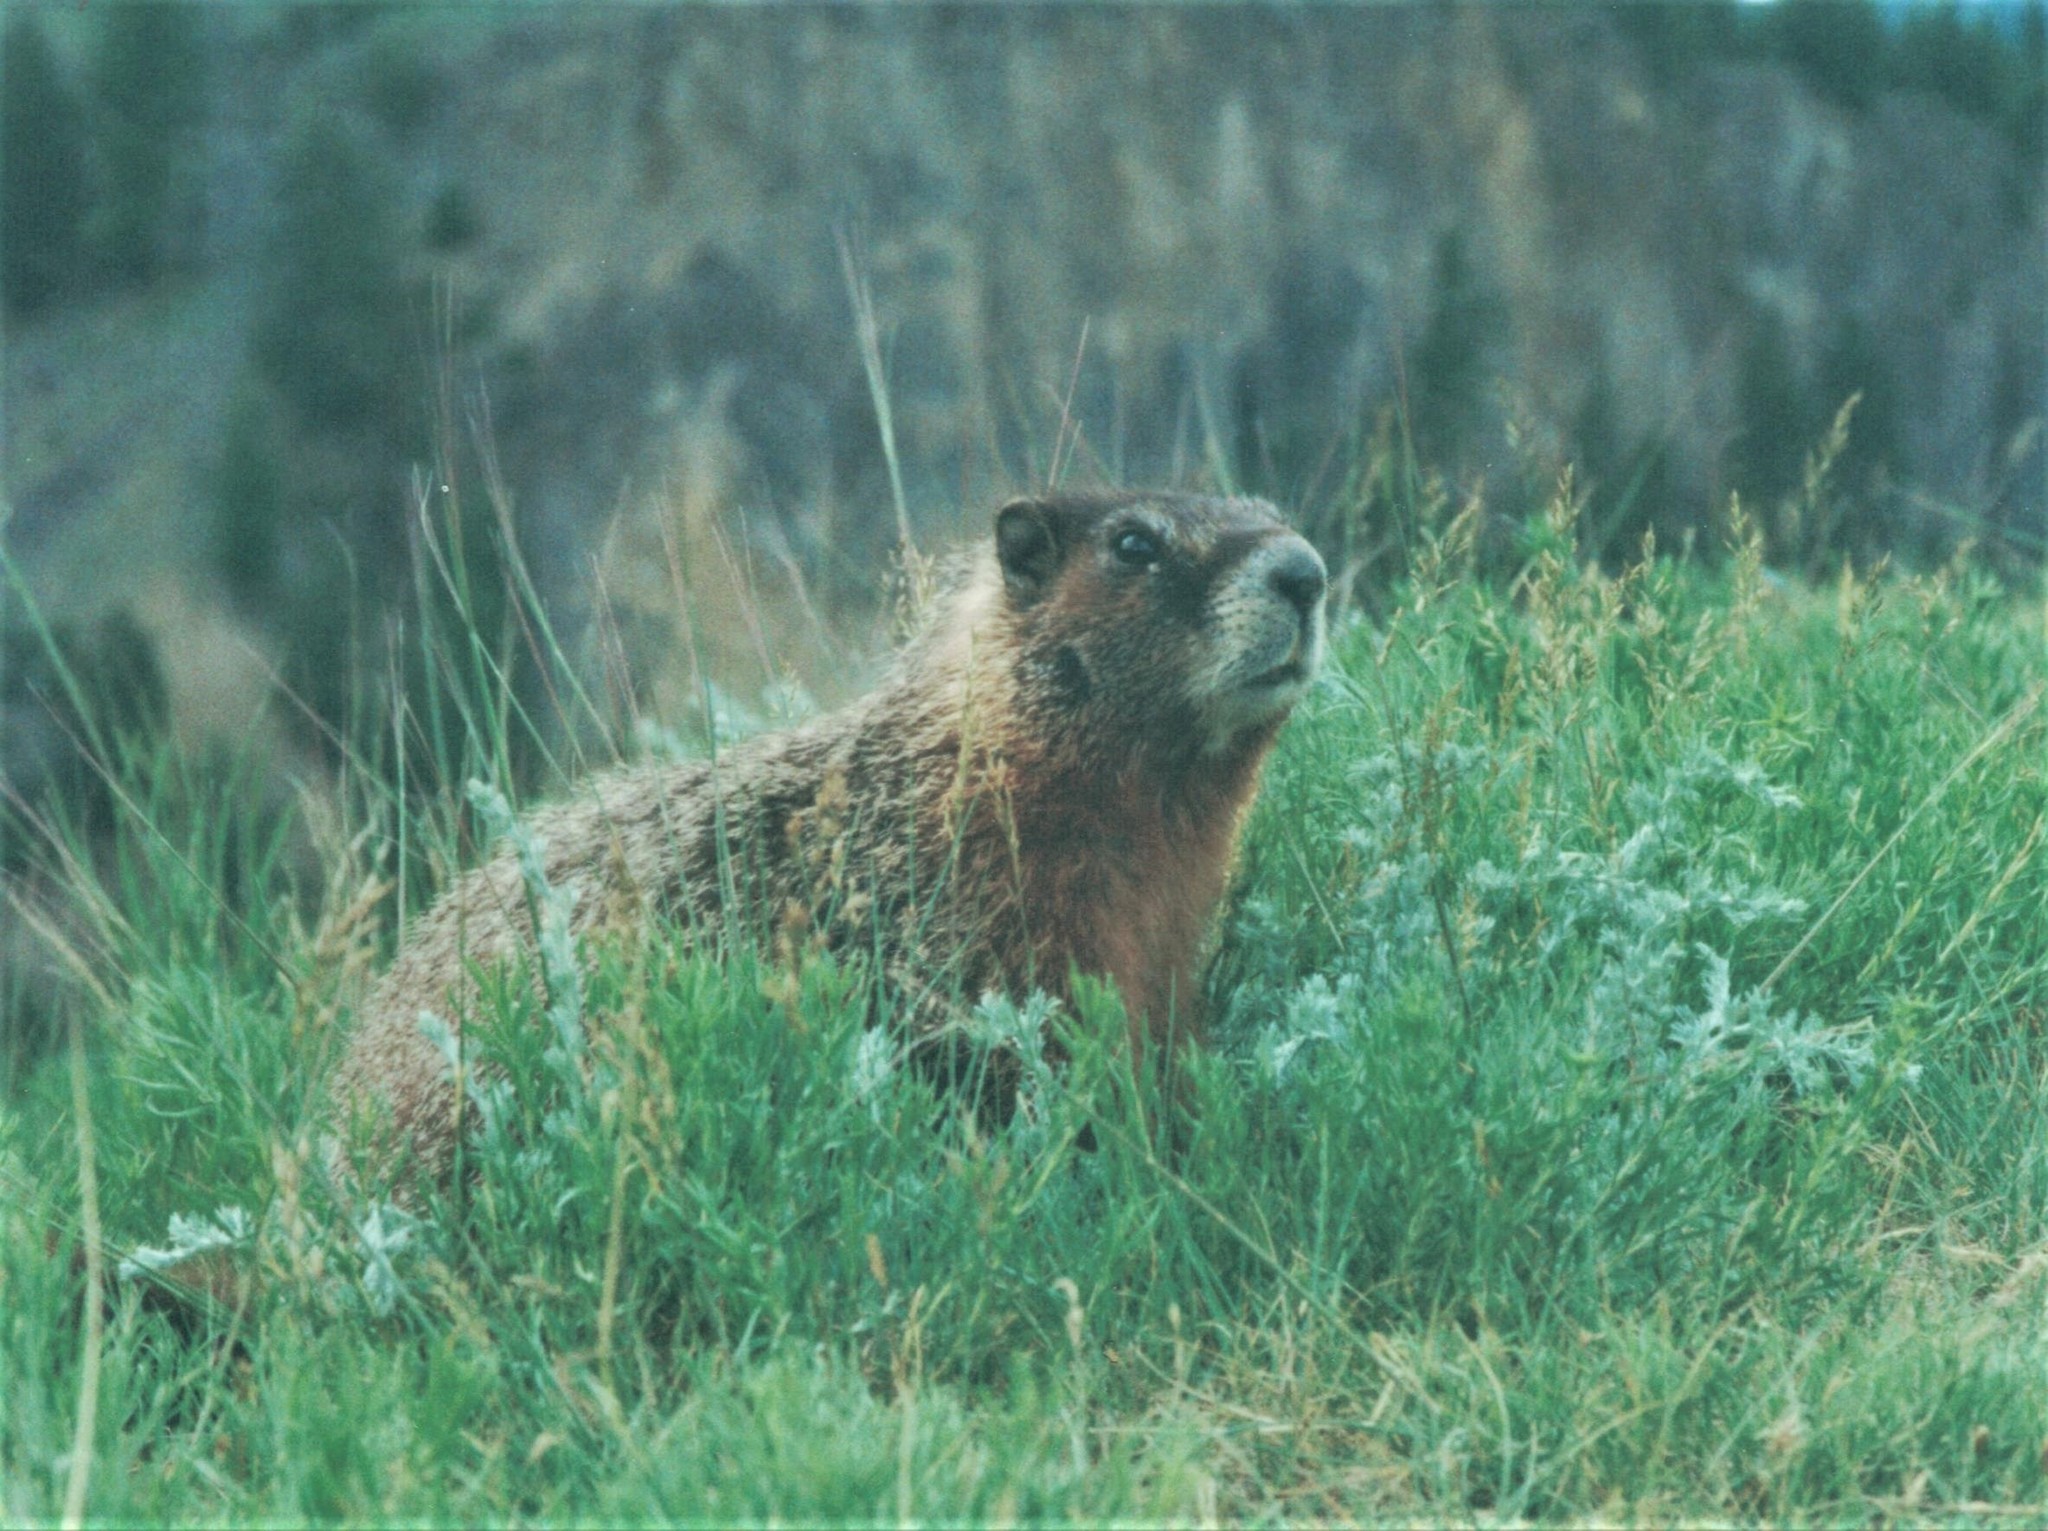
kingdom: Animalia
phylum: Chordata
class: Mammalia
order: Rodentia
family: Sciuridae
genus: Marmota
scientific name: Marmota flaviventris
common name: Yellow-bellied marmot
